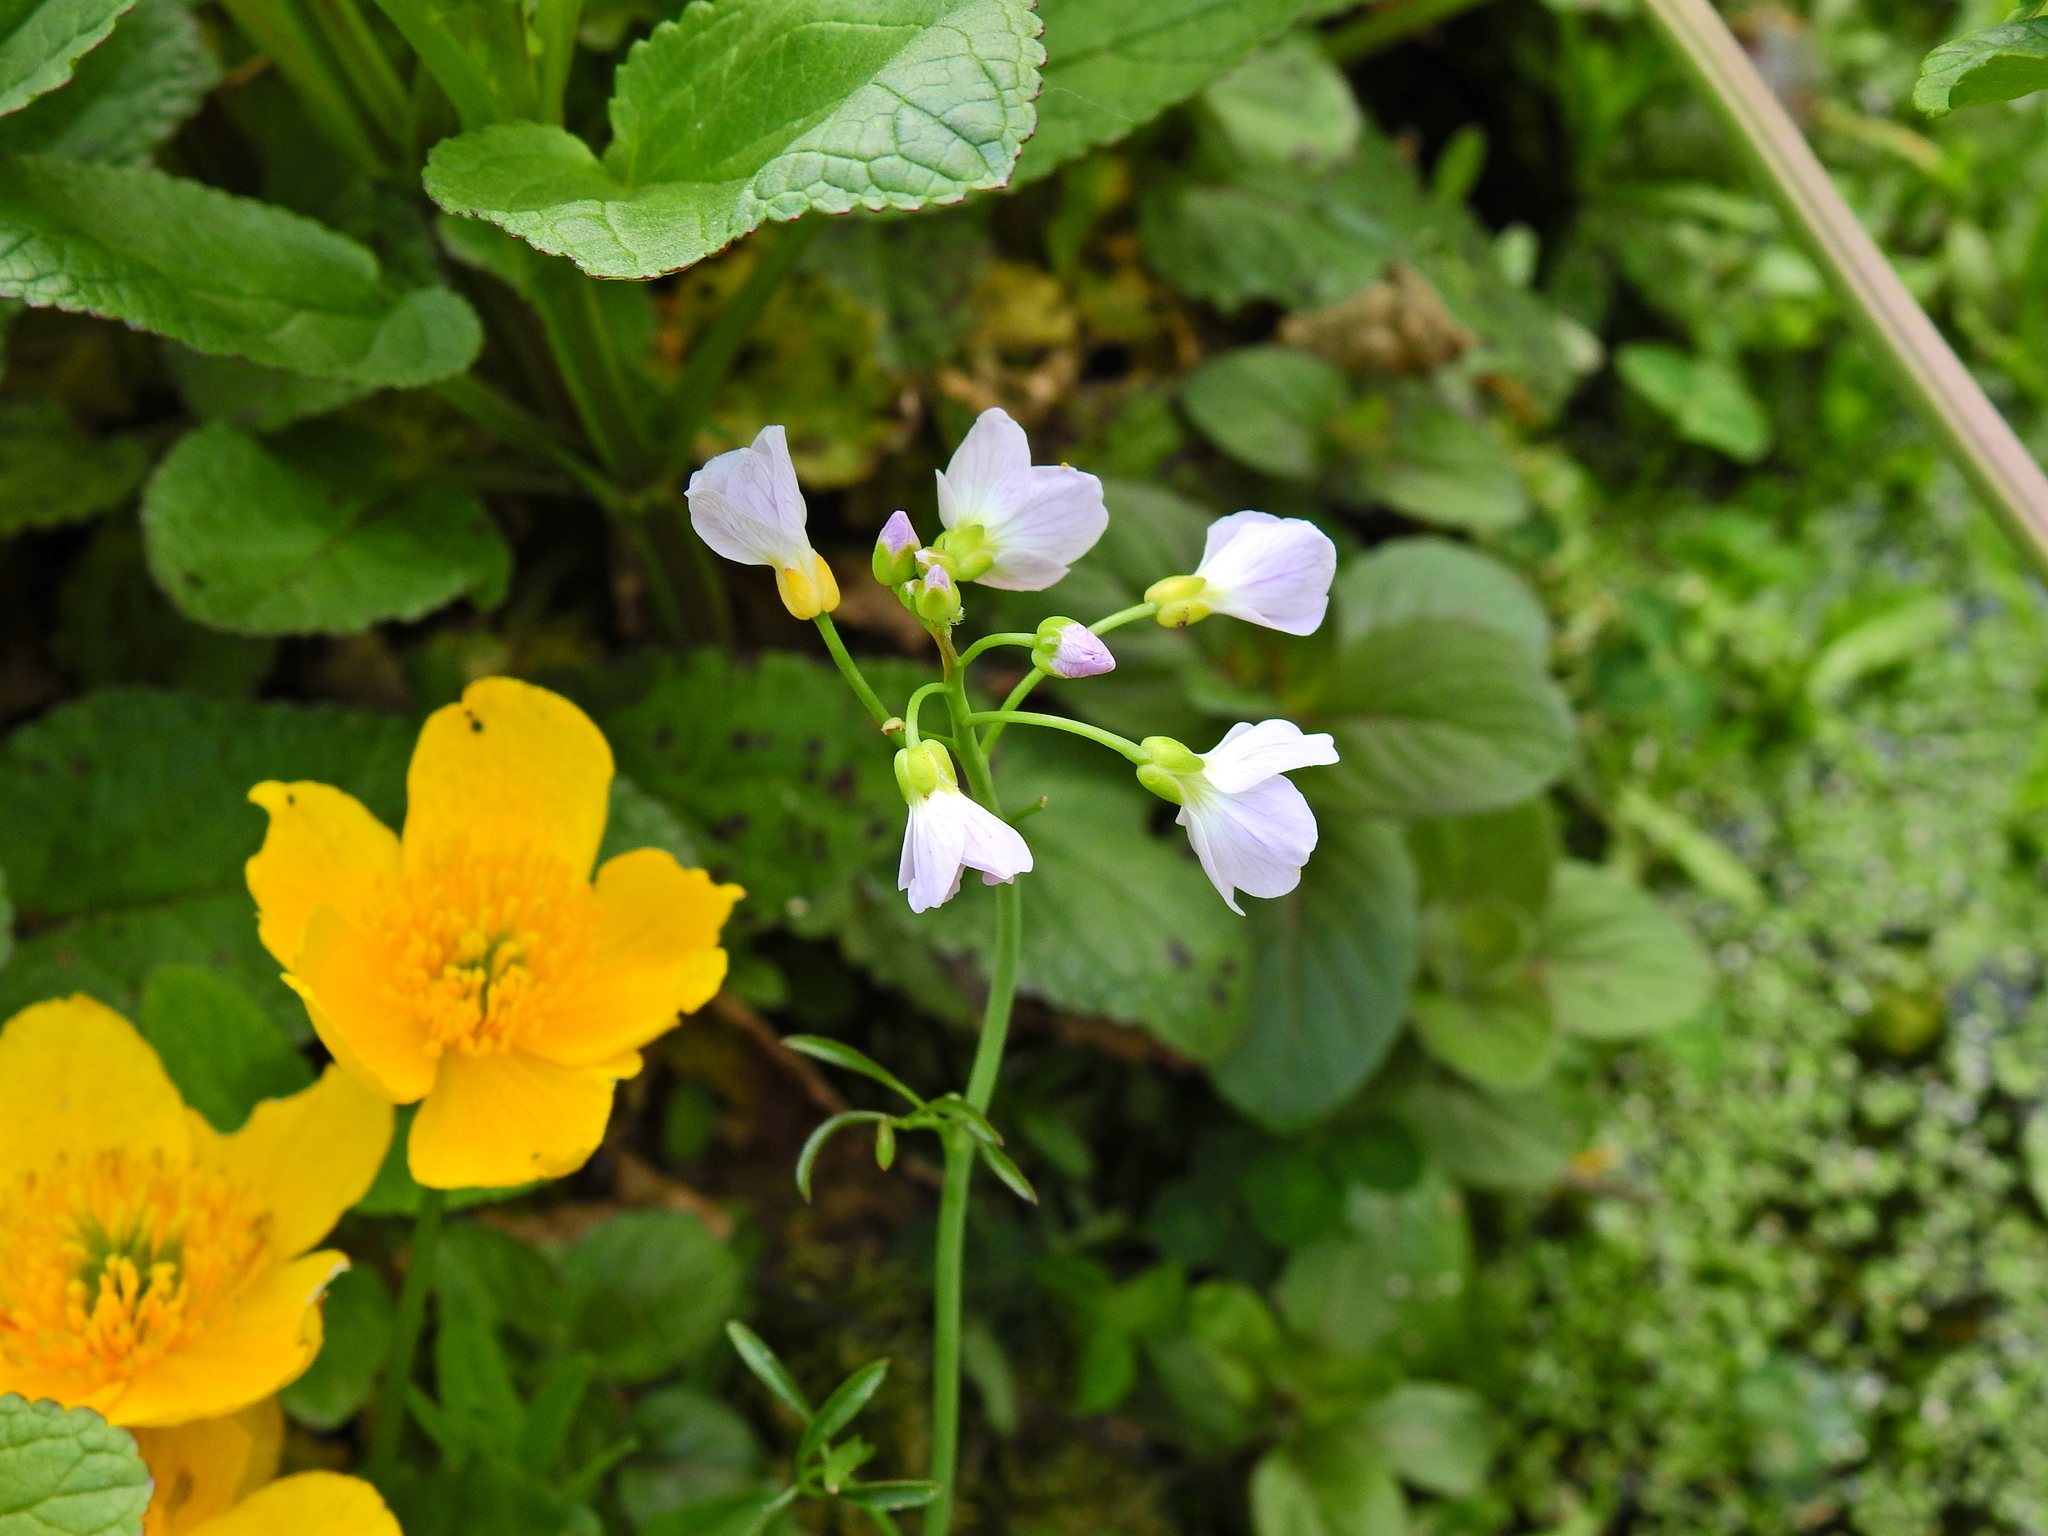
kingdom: Plantae
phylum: Tracheophyta
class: Magnoliopsida
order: Brassicales
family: Brassicaceae
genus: Cardamine
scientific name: Cardamine pratensis
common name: Cuckoo flower
